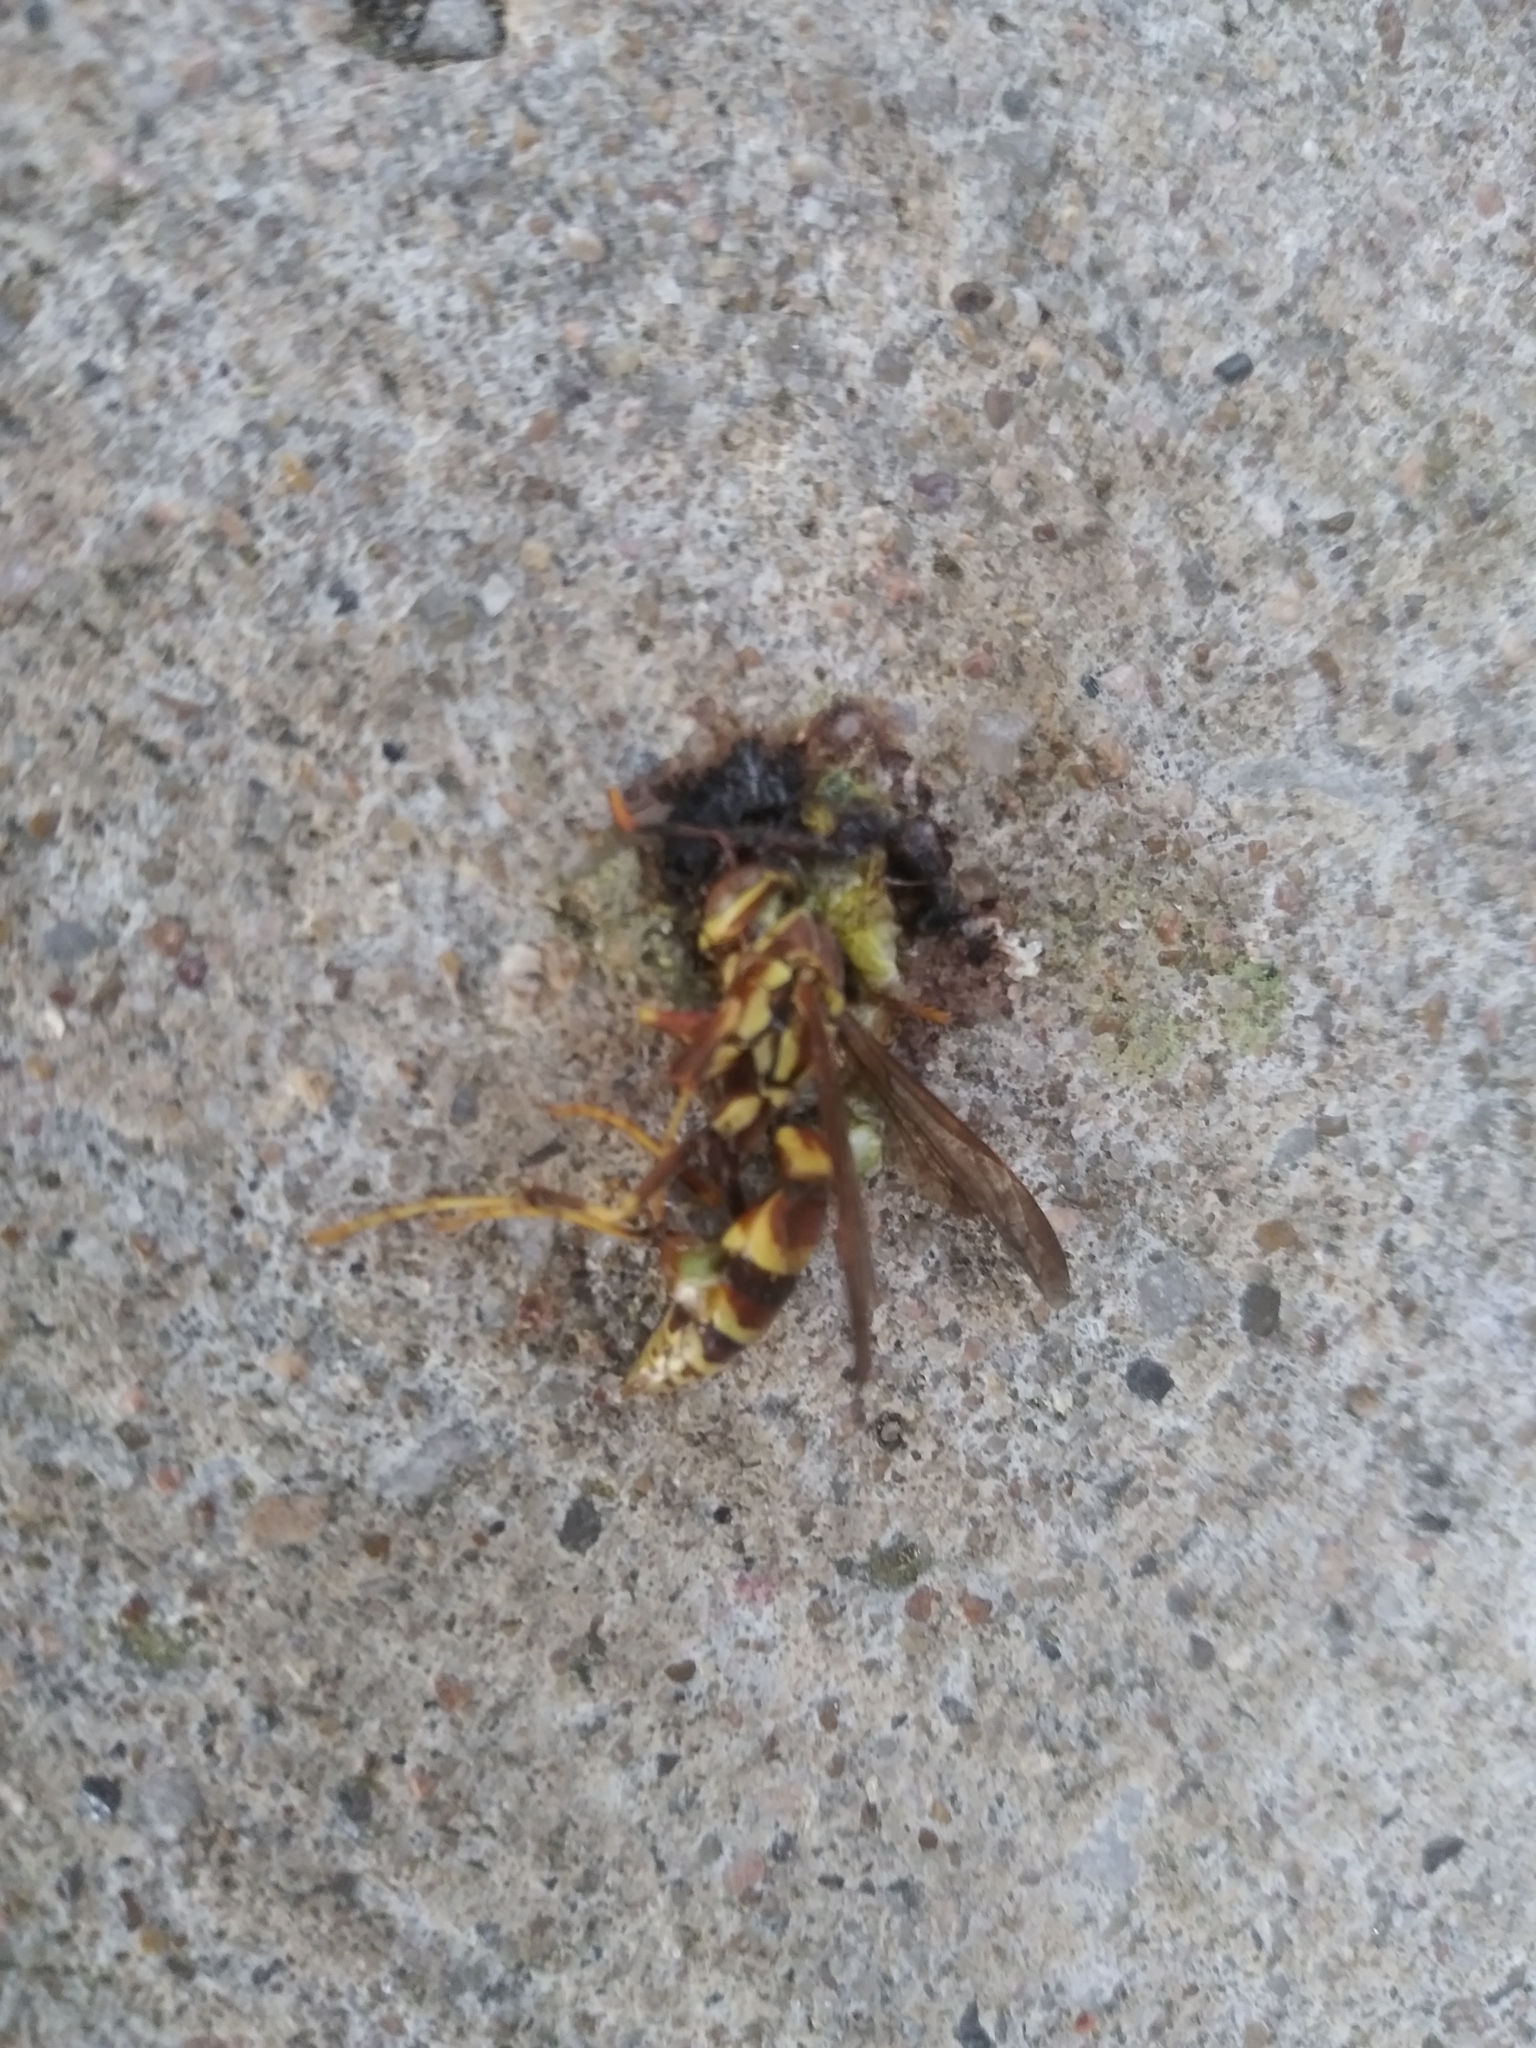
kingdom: Animalia
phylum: Arthropoda
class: Insecta
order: Hymenoptera
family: Eumenidae
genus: Polistes
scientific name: Polistes exclamans
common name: Paper wasp
